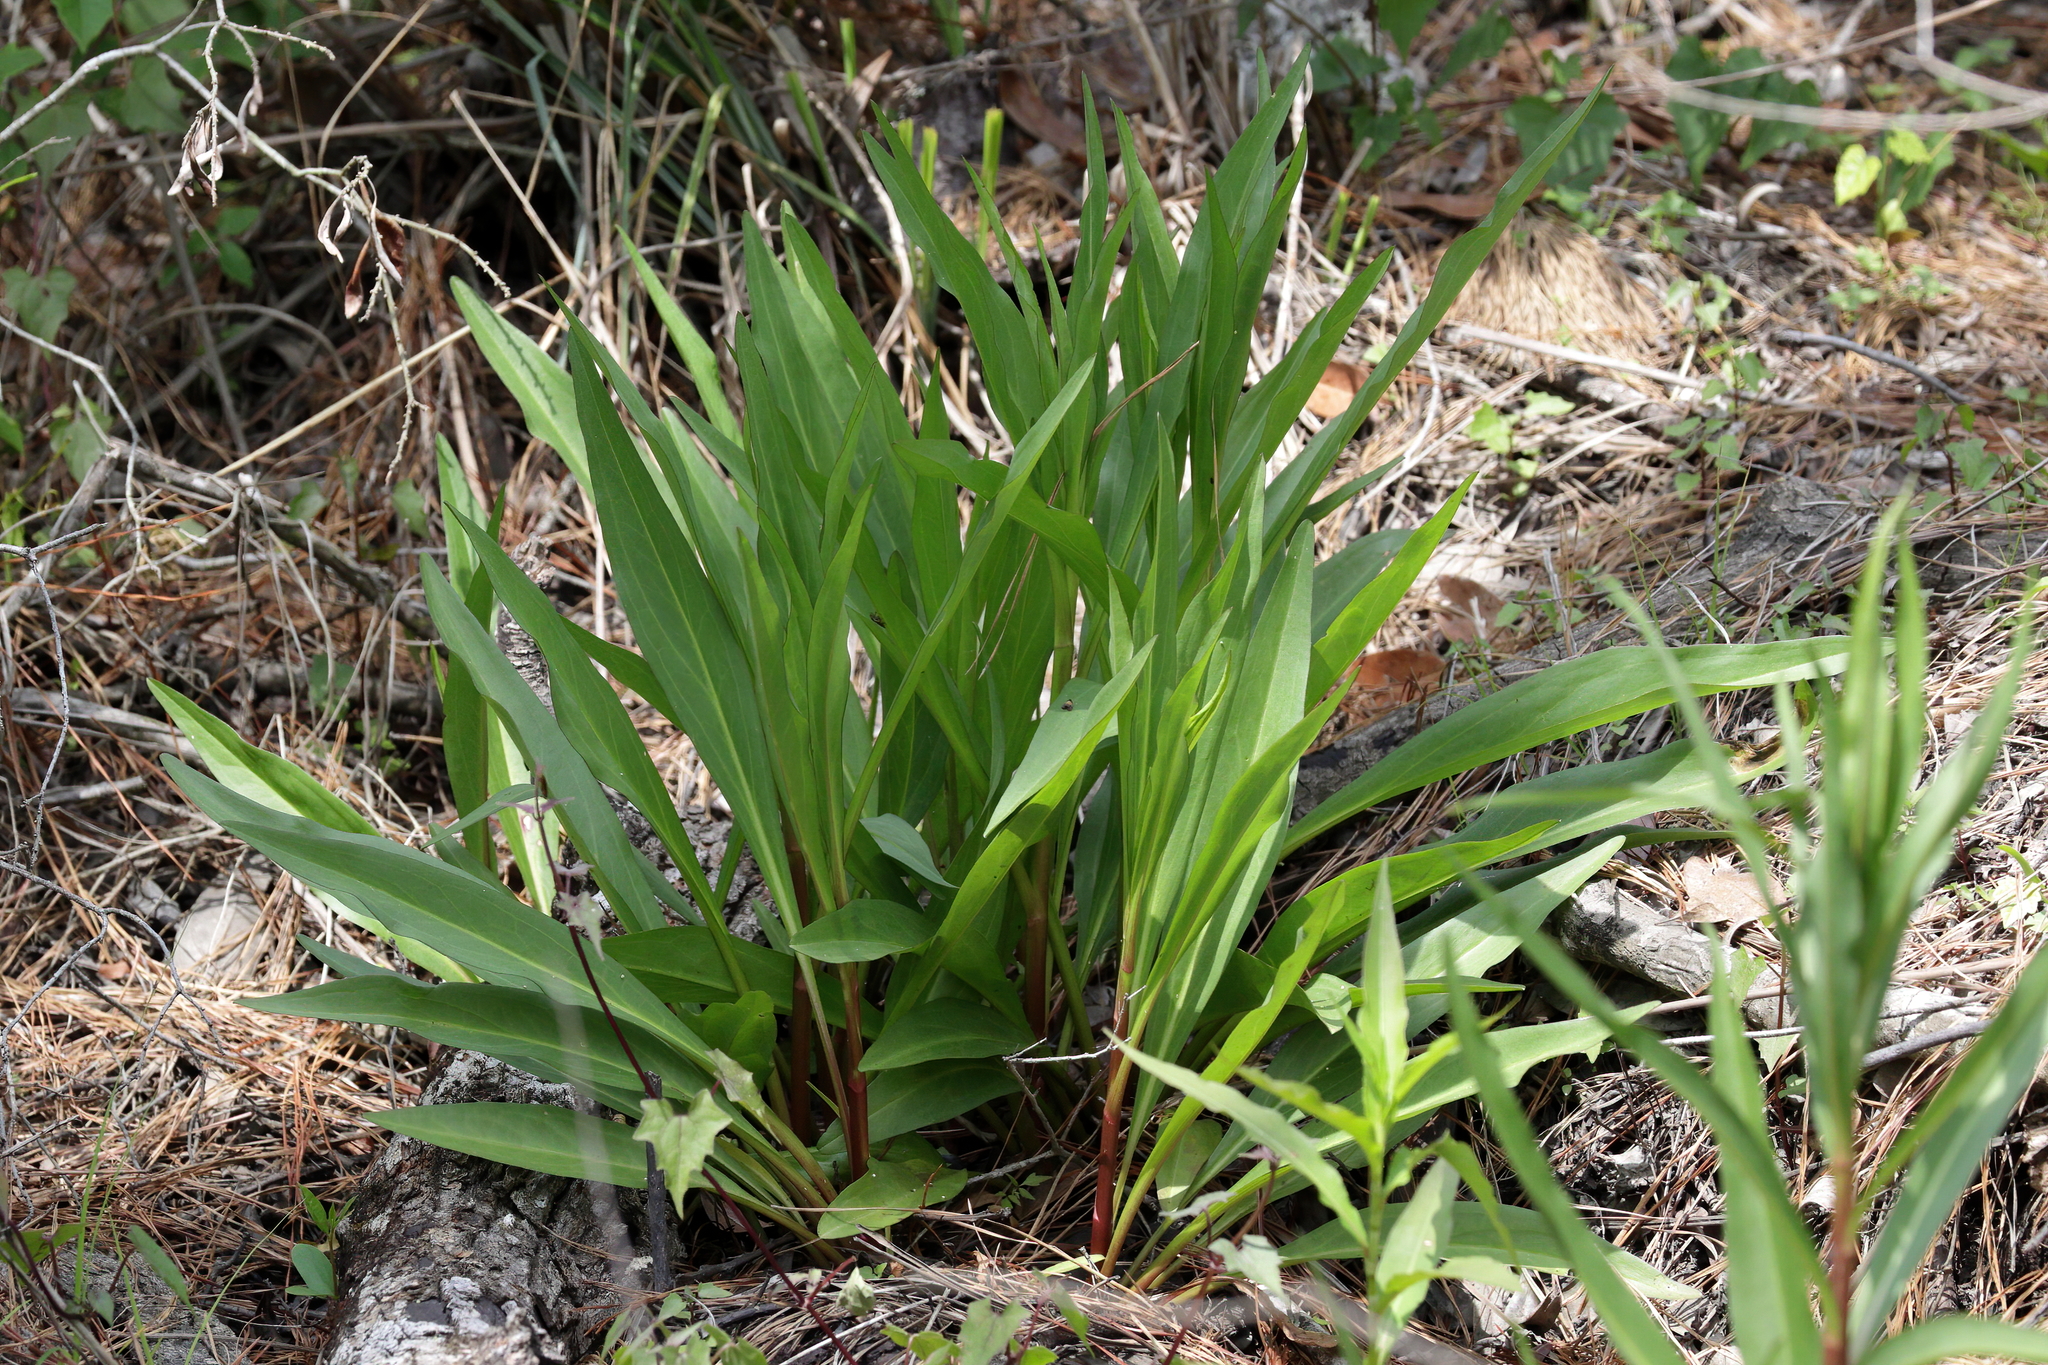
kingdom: Plantae
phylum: Tracheophyta
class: Magnoliopsida
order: Asterales
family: Asteraceae
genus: Solidago
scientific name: Solidago mexicana
